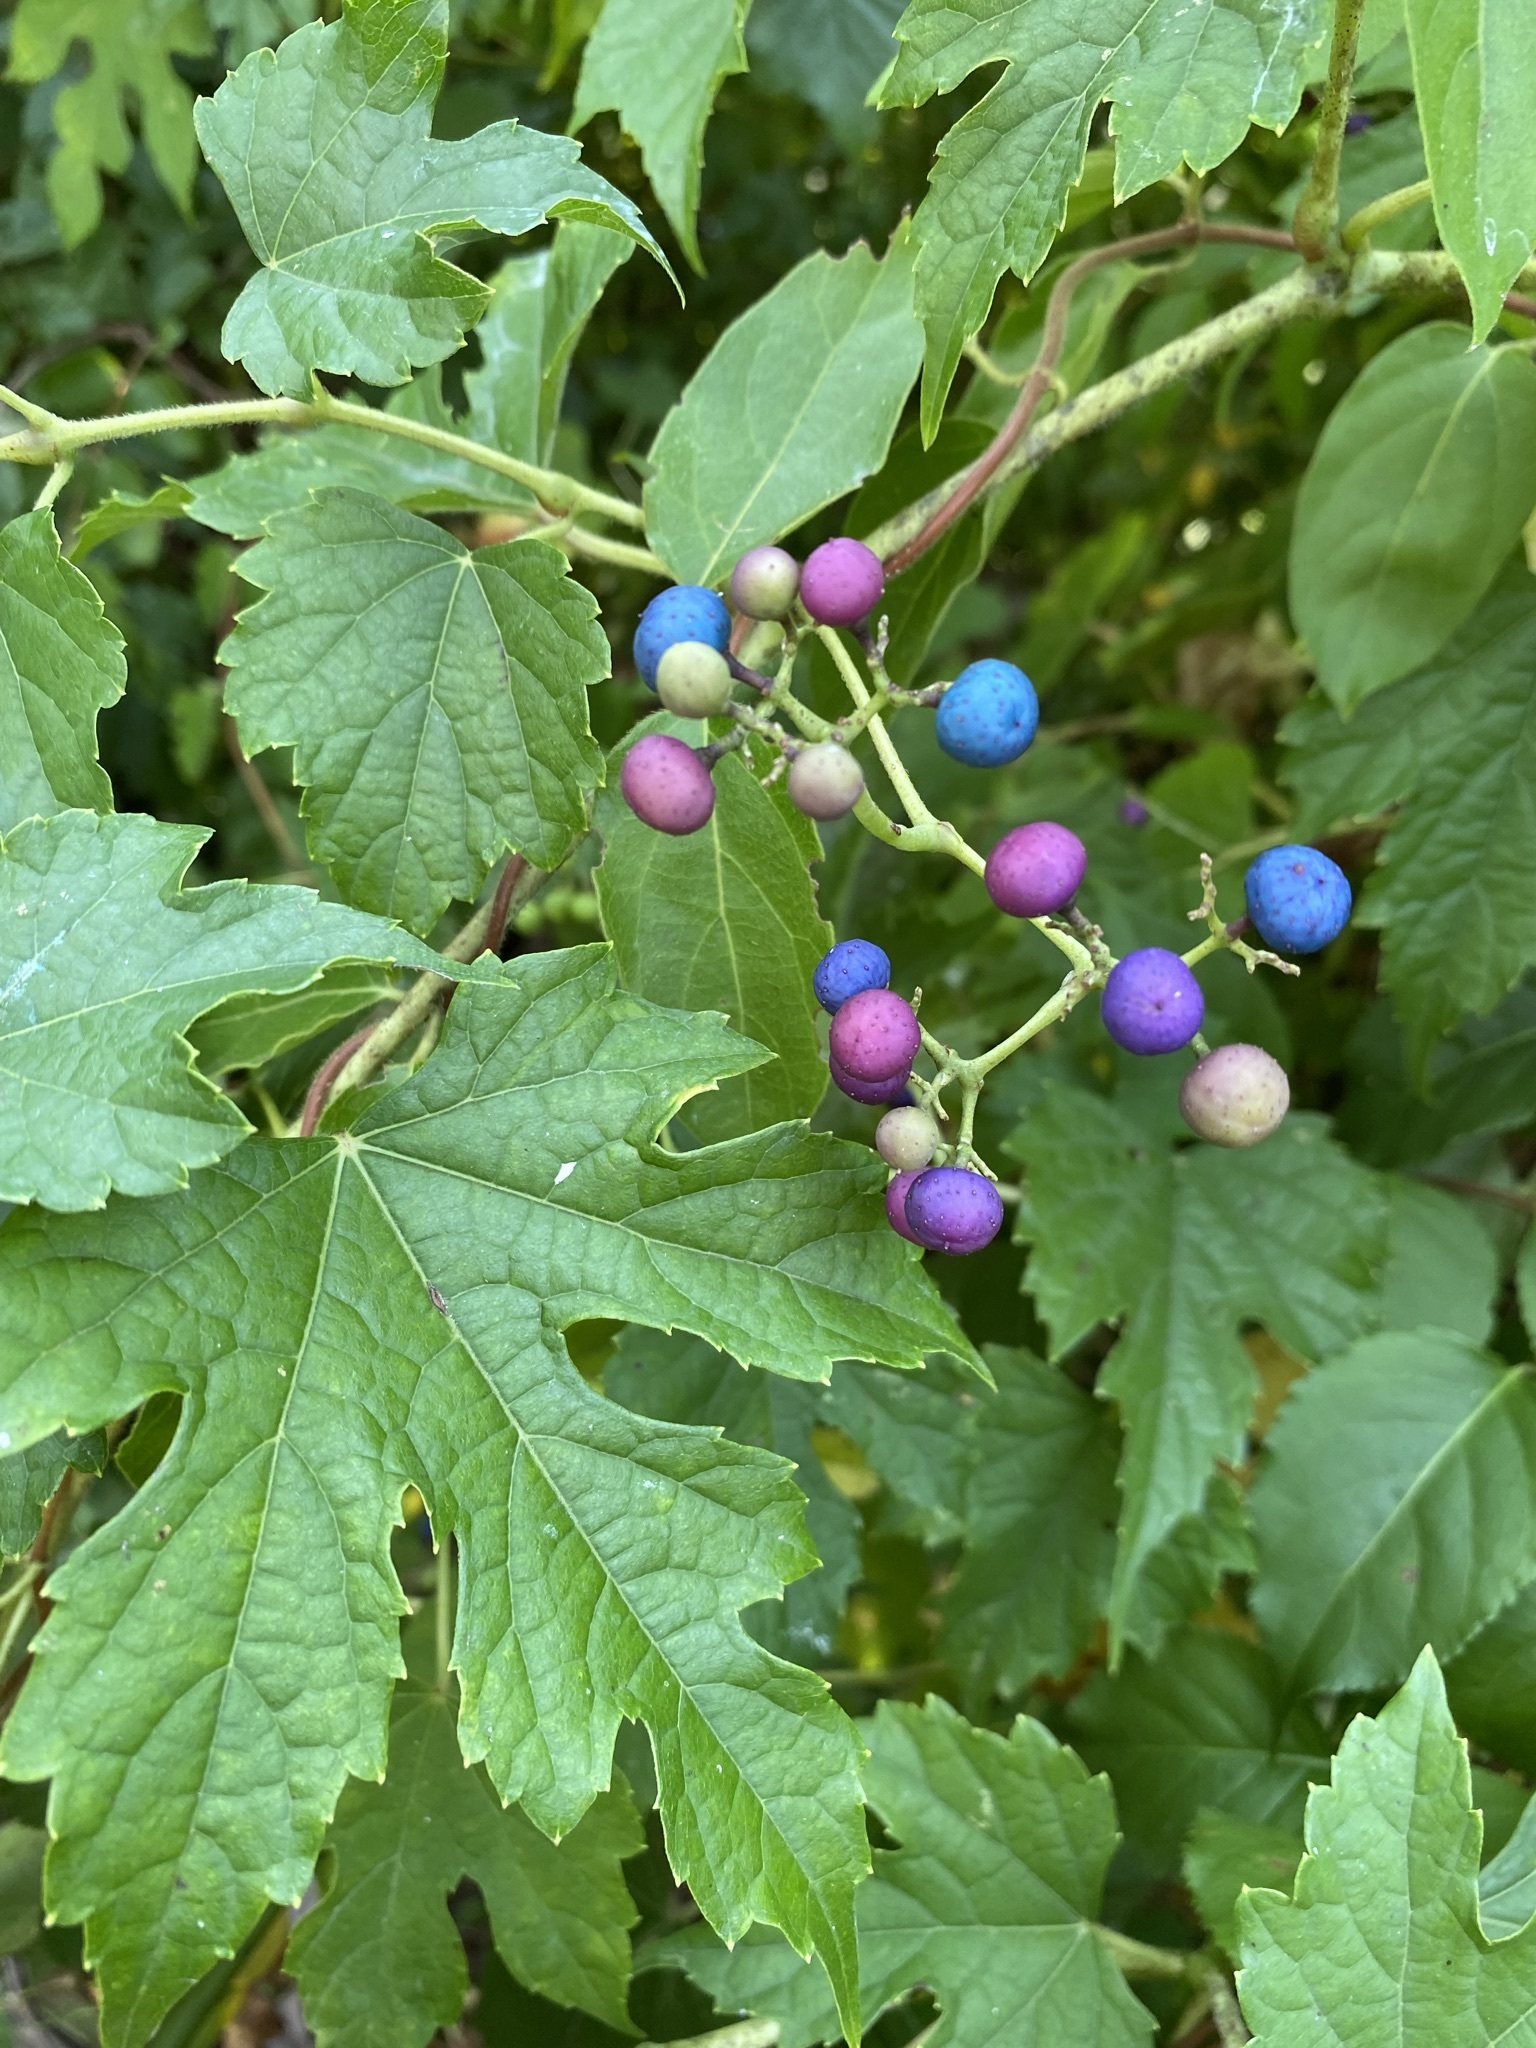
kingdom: Plantae
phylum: Tracheophyta
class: Magnoliopsida
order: Vitales
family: Vitaceae
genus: Ampelopsis
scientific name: Ampelopsis glandulosa
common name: Amur peppervine
